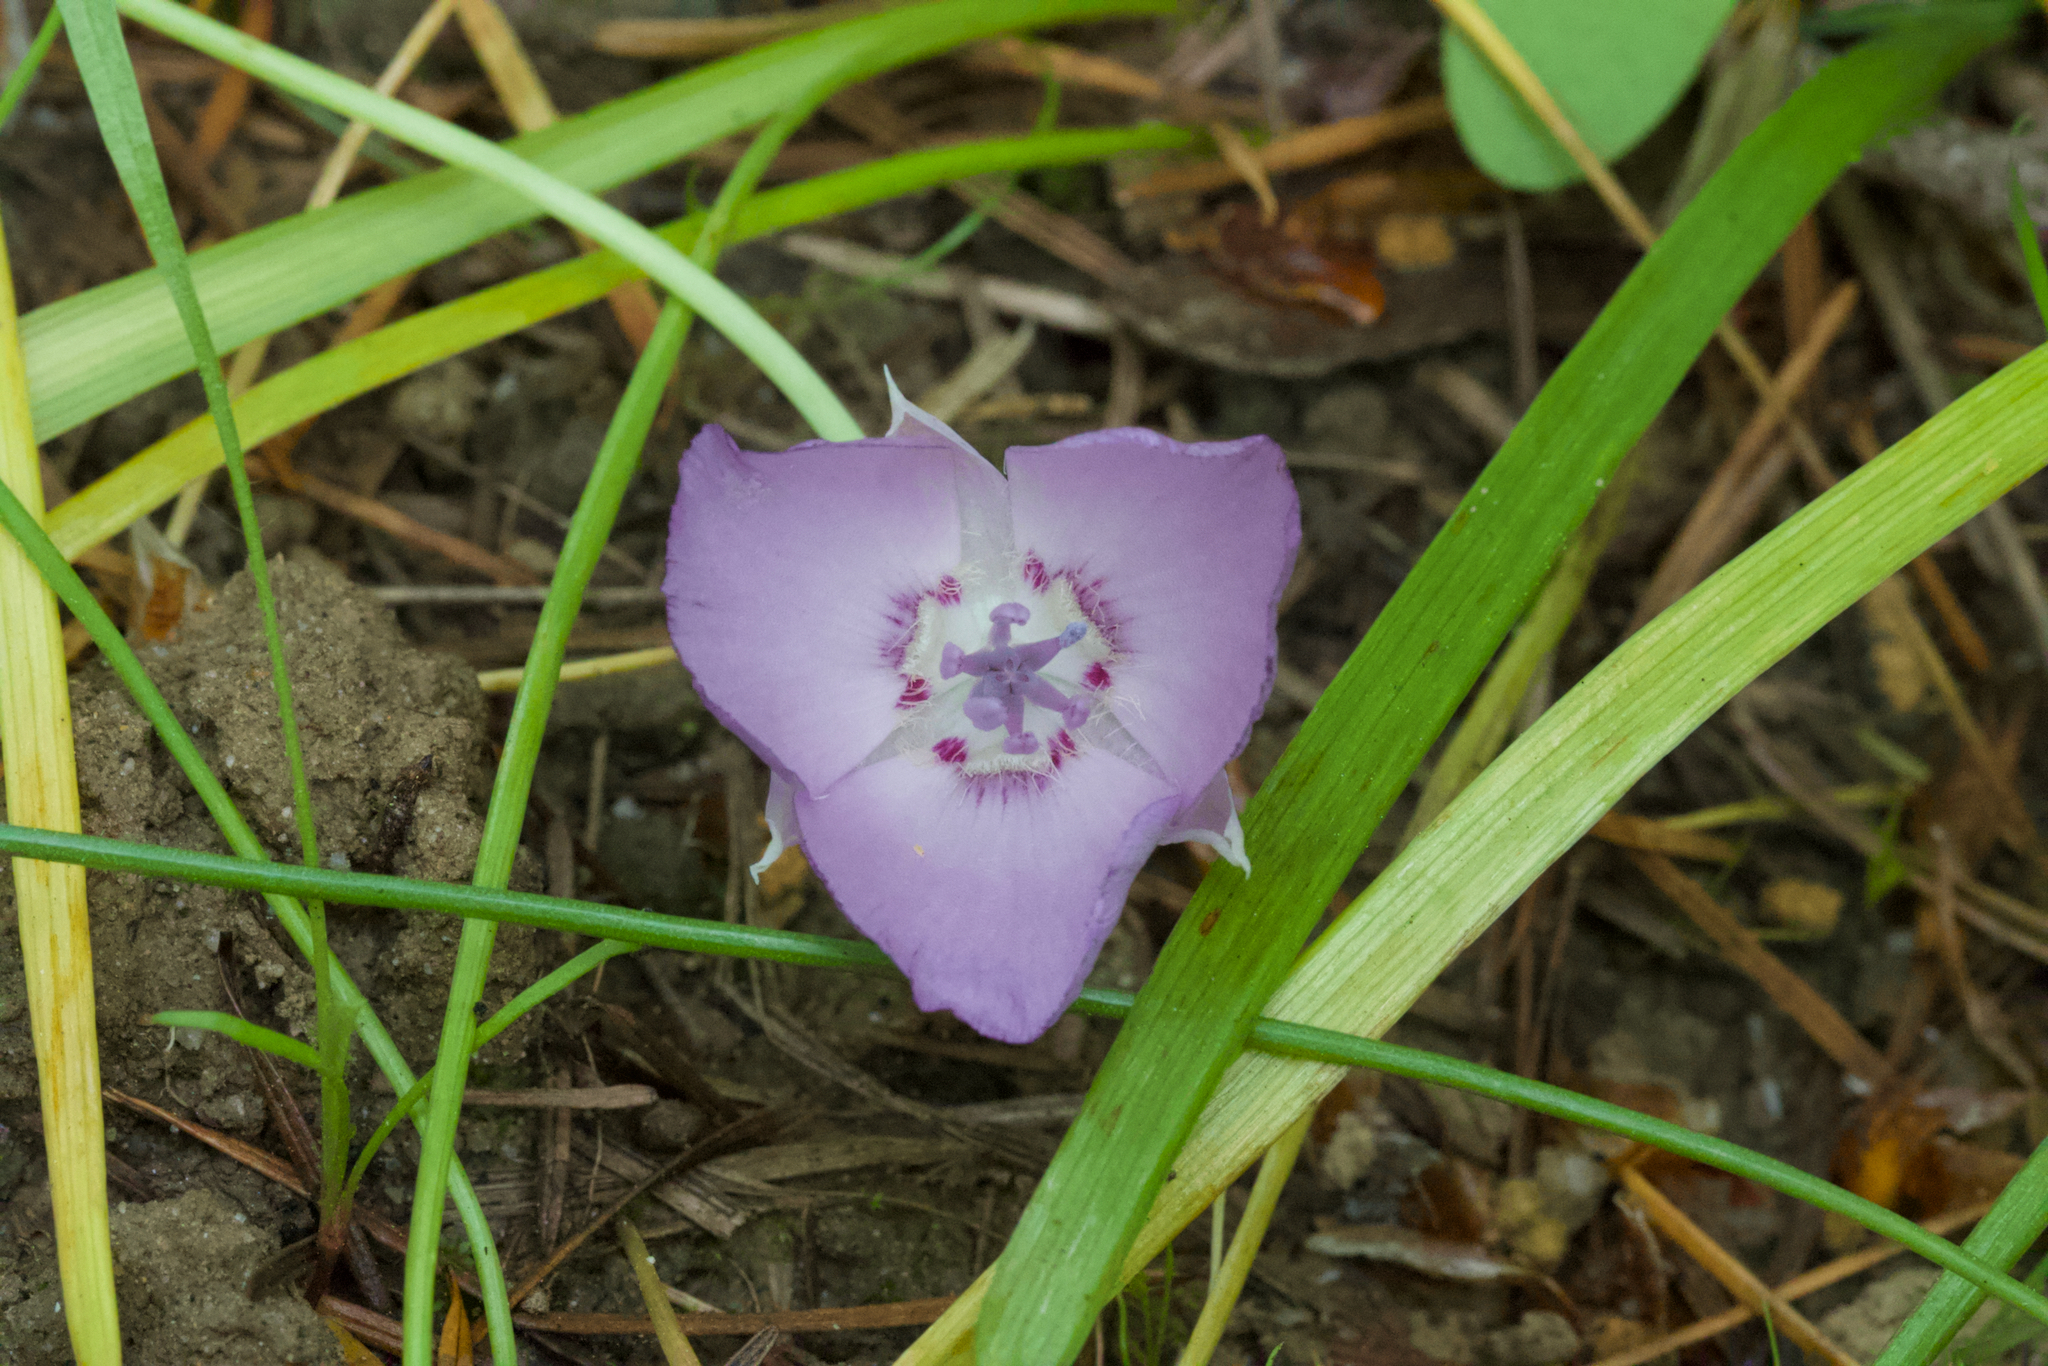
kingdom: Plantae
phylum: Tracheophyta
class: Liliopsida
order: Liliales
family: Liliaceae
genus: Calochortus
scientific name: Calochortus uniflorus
